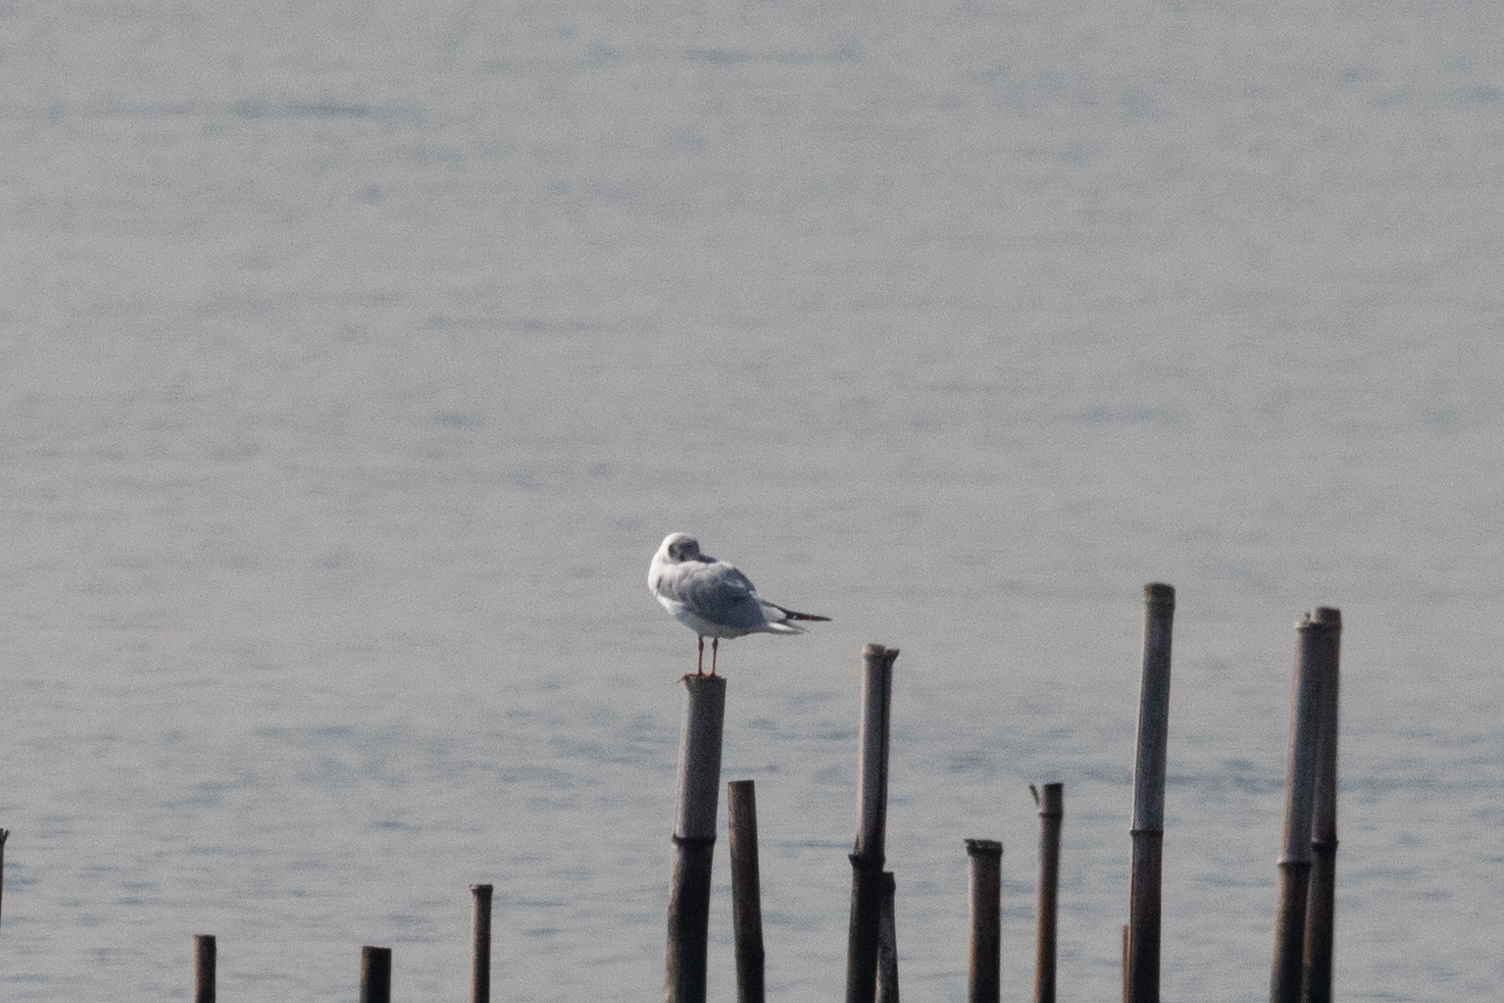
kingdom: Animalia
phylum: Chordata
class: Aves
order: Charadriiformes
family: Laridae
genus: Chroicocephalus
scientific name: Chroicocephalus ridibundus
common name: Black-headed gull
